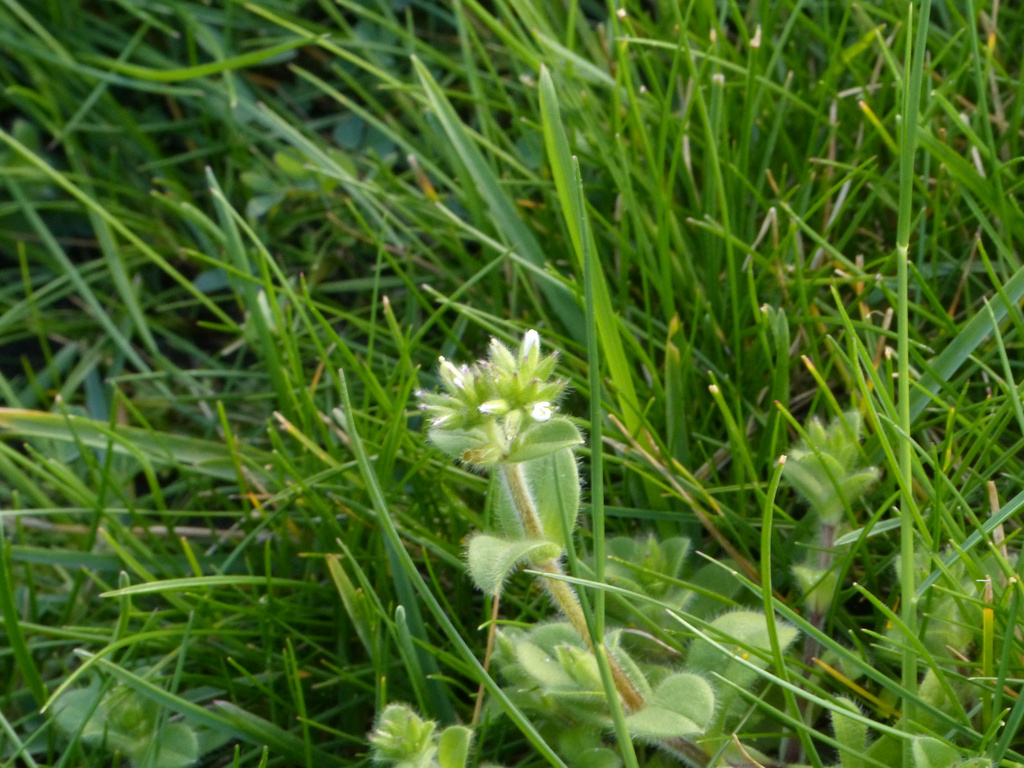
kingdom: Plantae
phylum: Tracheophyta
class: Magnoliopsida
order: Caryophyllales
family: Caryophyllaceae
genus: Cerastium
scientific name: Cerastium glomeratum
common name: Sticky chickweed
